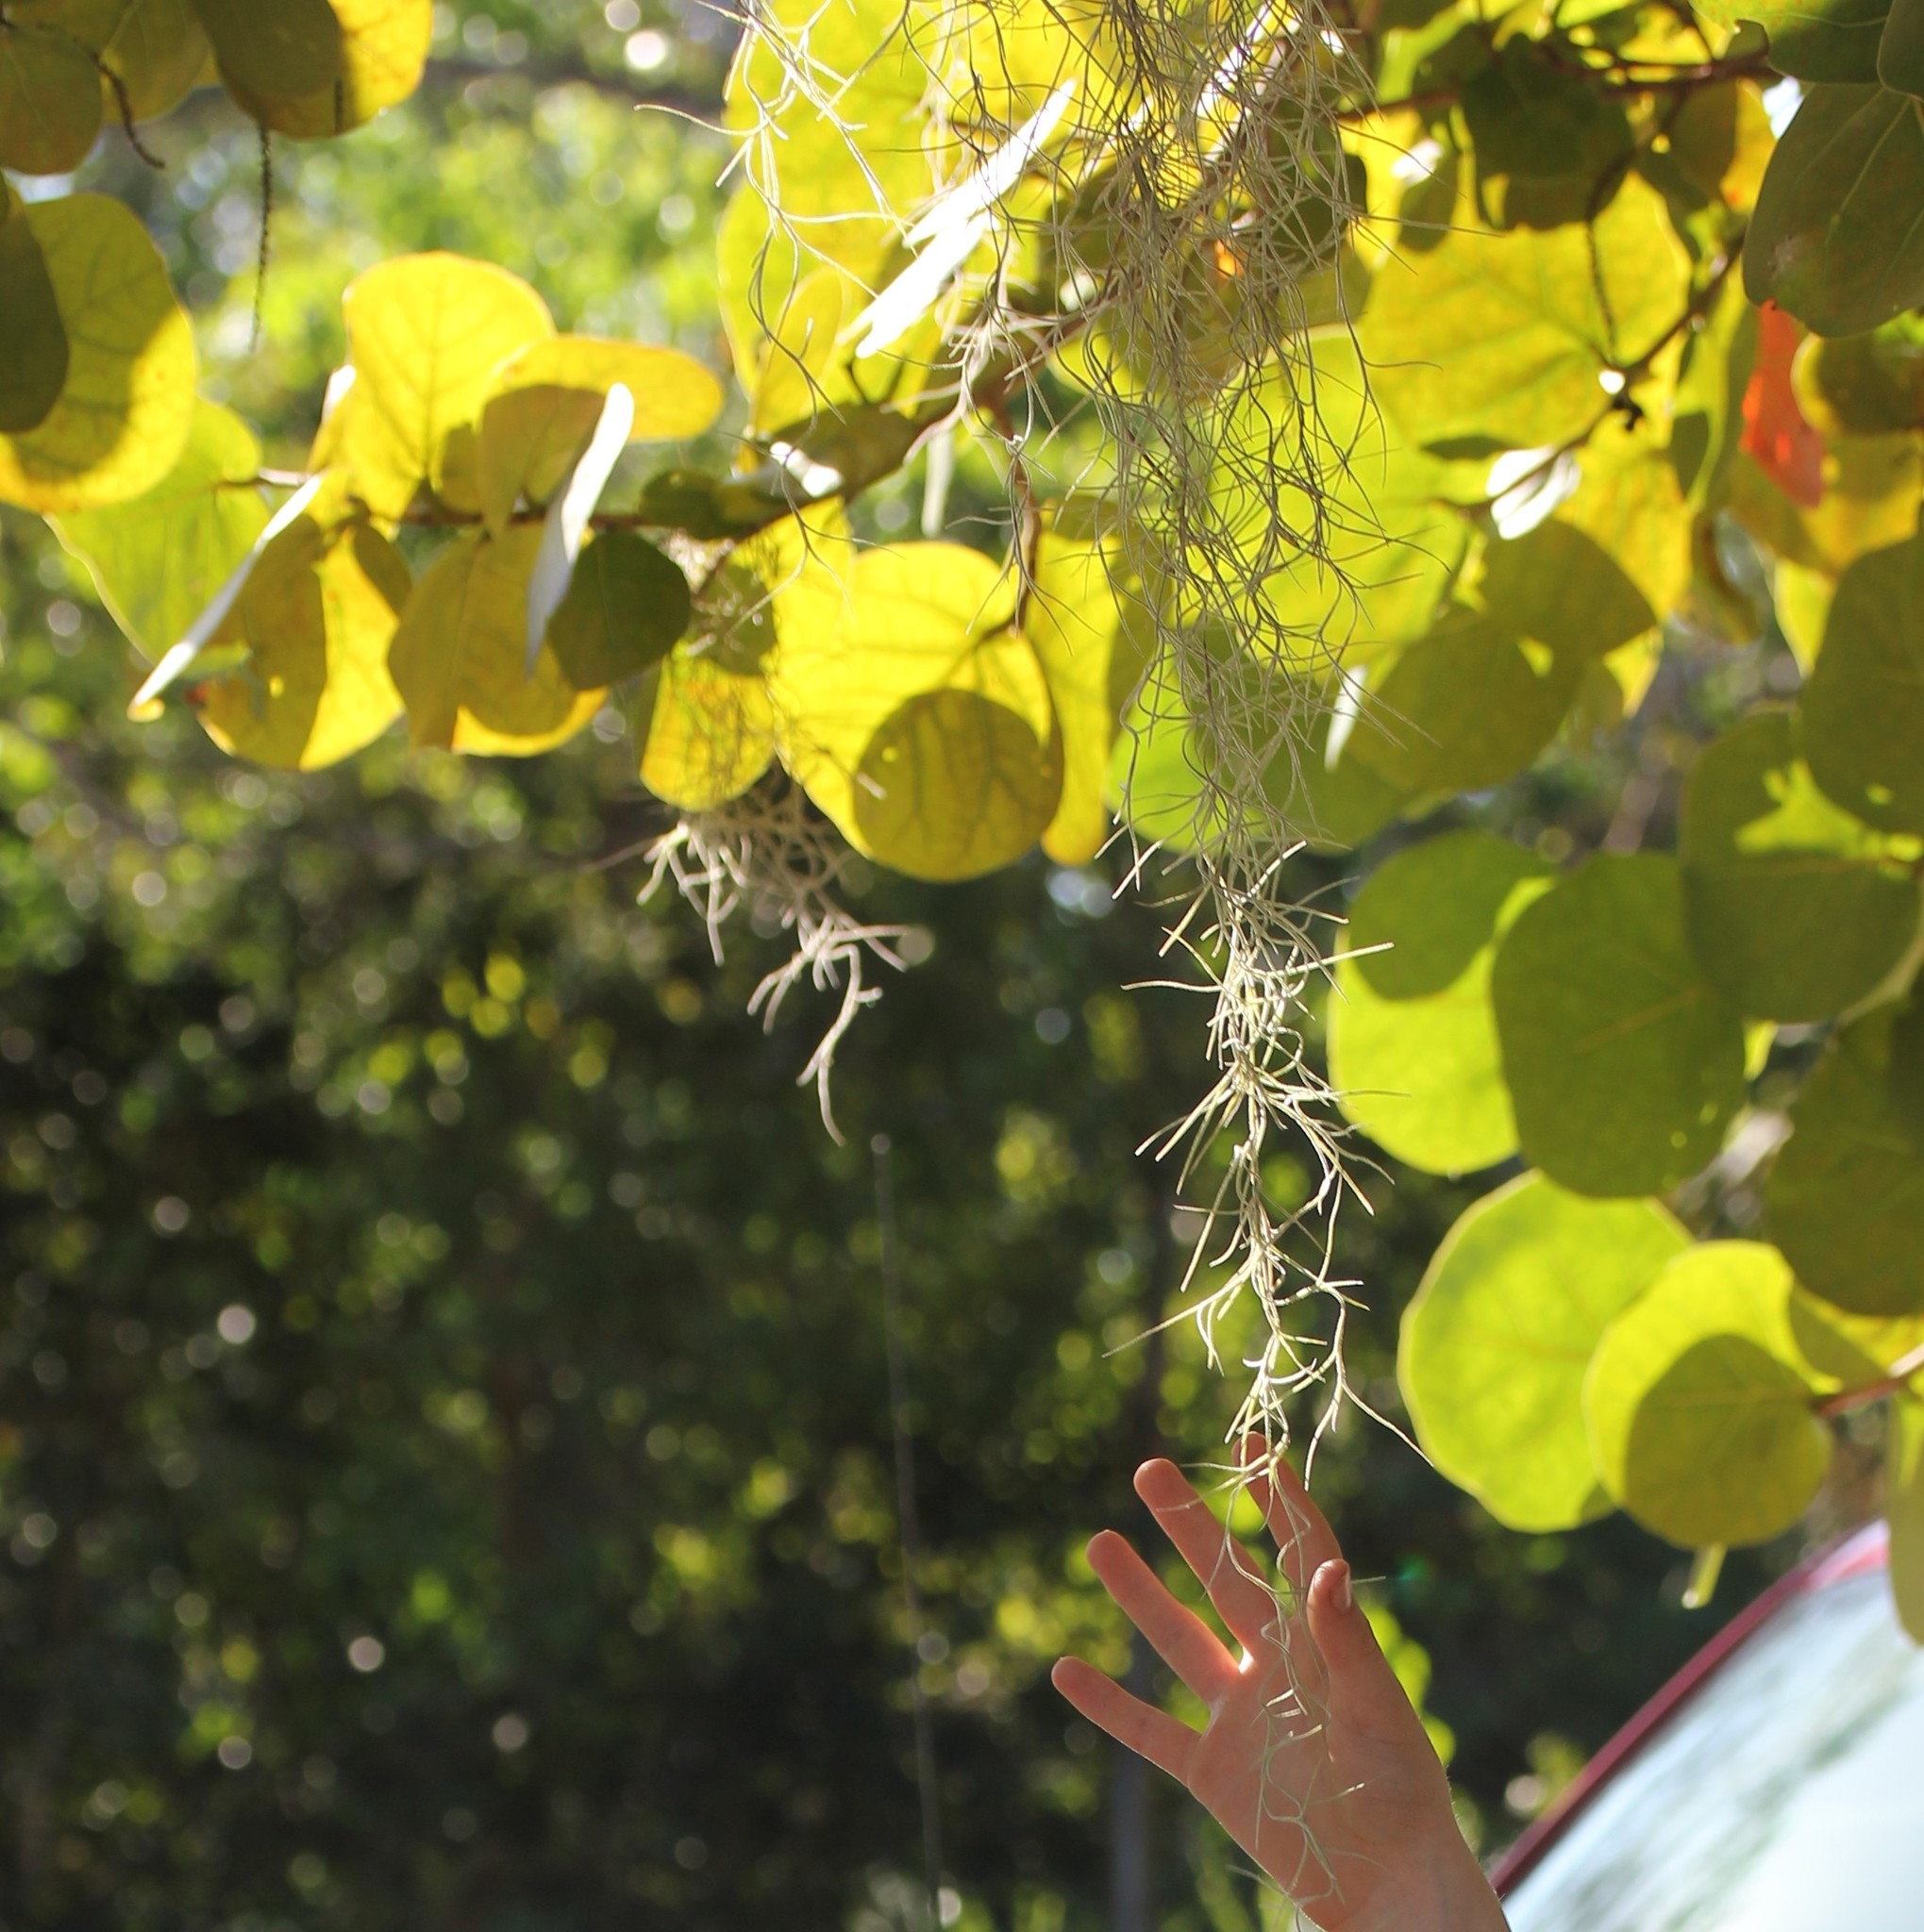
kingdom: Plantae
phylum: Tracheophyta
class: Liliopsida
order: Poales
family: Bromeliaceae
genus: Tillandsia
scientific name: Tillandsia usneoides
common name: Spanish moss
